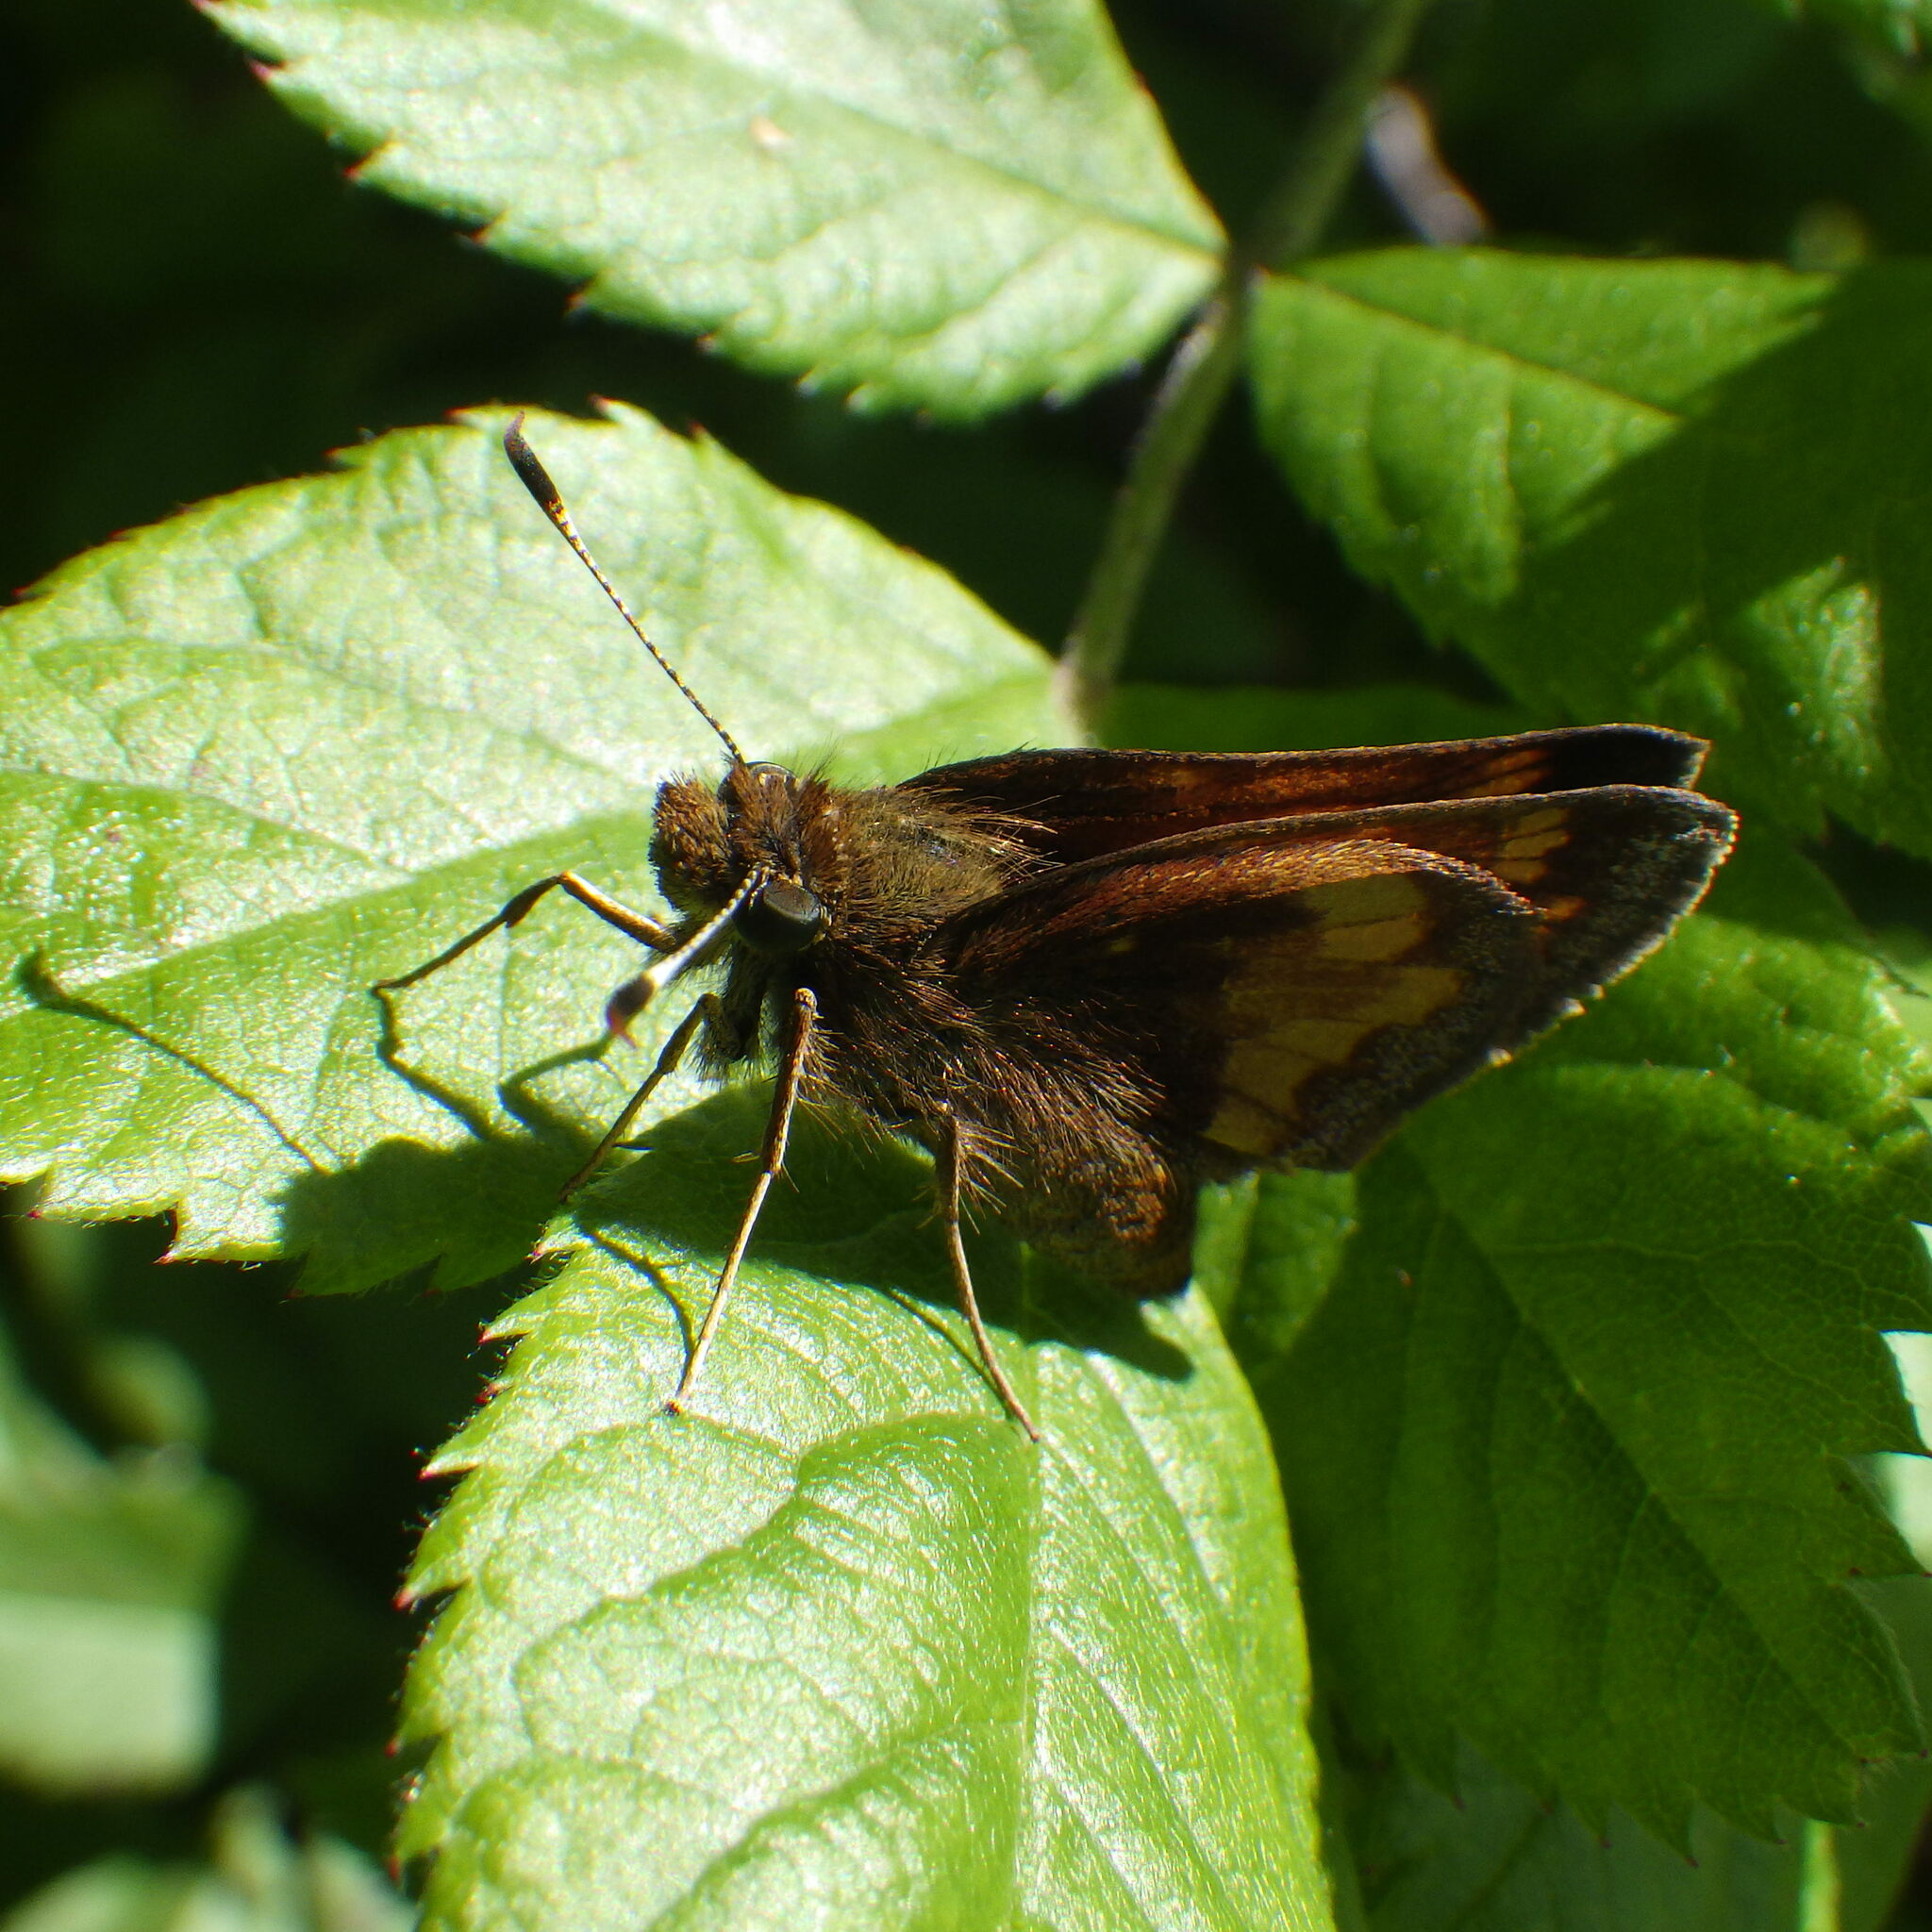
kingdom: Animalia
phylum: Arthropoda
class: Insecta
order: Lepidoptera
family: Hesperiidae
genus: Lon
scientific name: Lon hobomok
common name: Hobomok skipper
